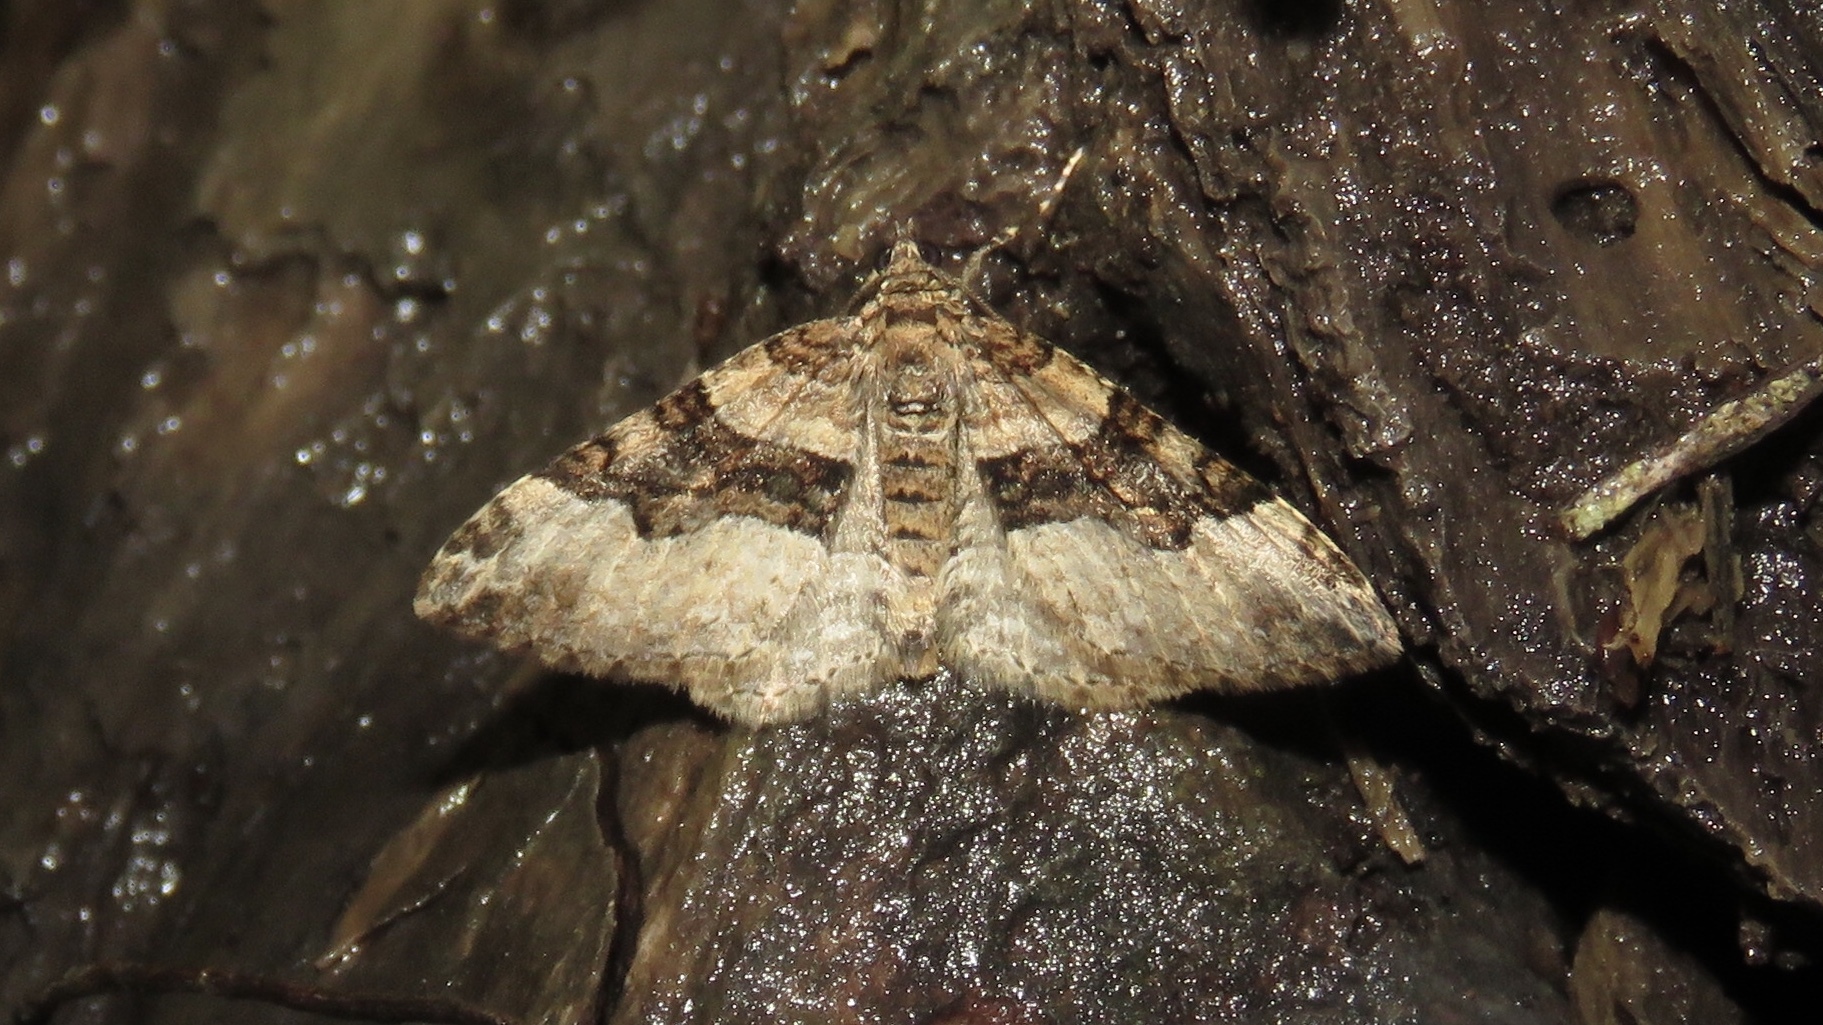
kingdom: Animalia
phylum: Arthropoda
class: Insecta
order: Lepidoptera
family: Geometridae
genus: Xanthorhoe
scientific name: Xanthorhoe lacustrata
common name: Toothed brown carpet
